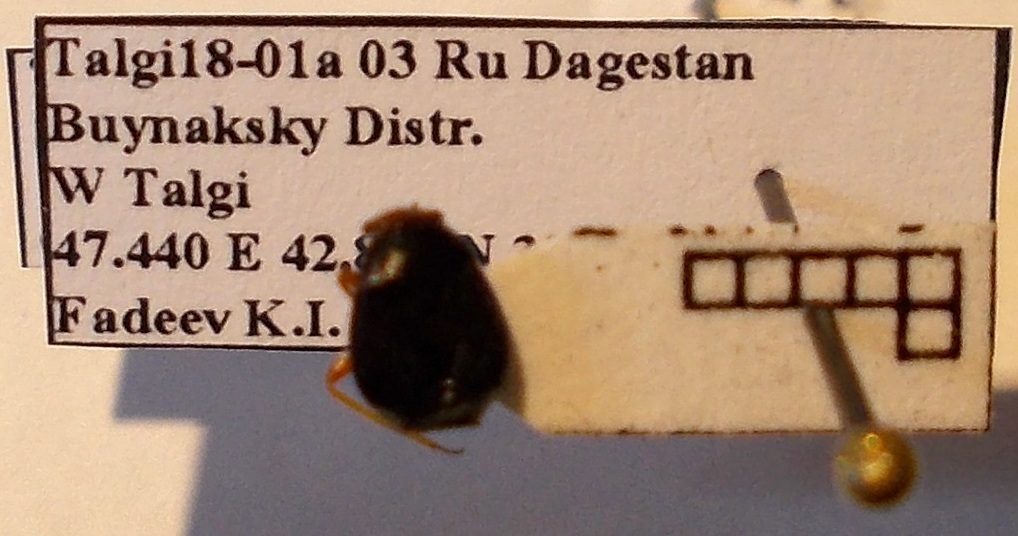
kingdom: Animalia
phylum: Arthropoda
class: Insecta
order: Hemiptera
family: Miridae
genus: Strongylocoris
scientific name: Strongylocoris leucocephalus
